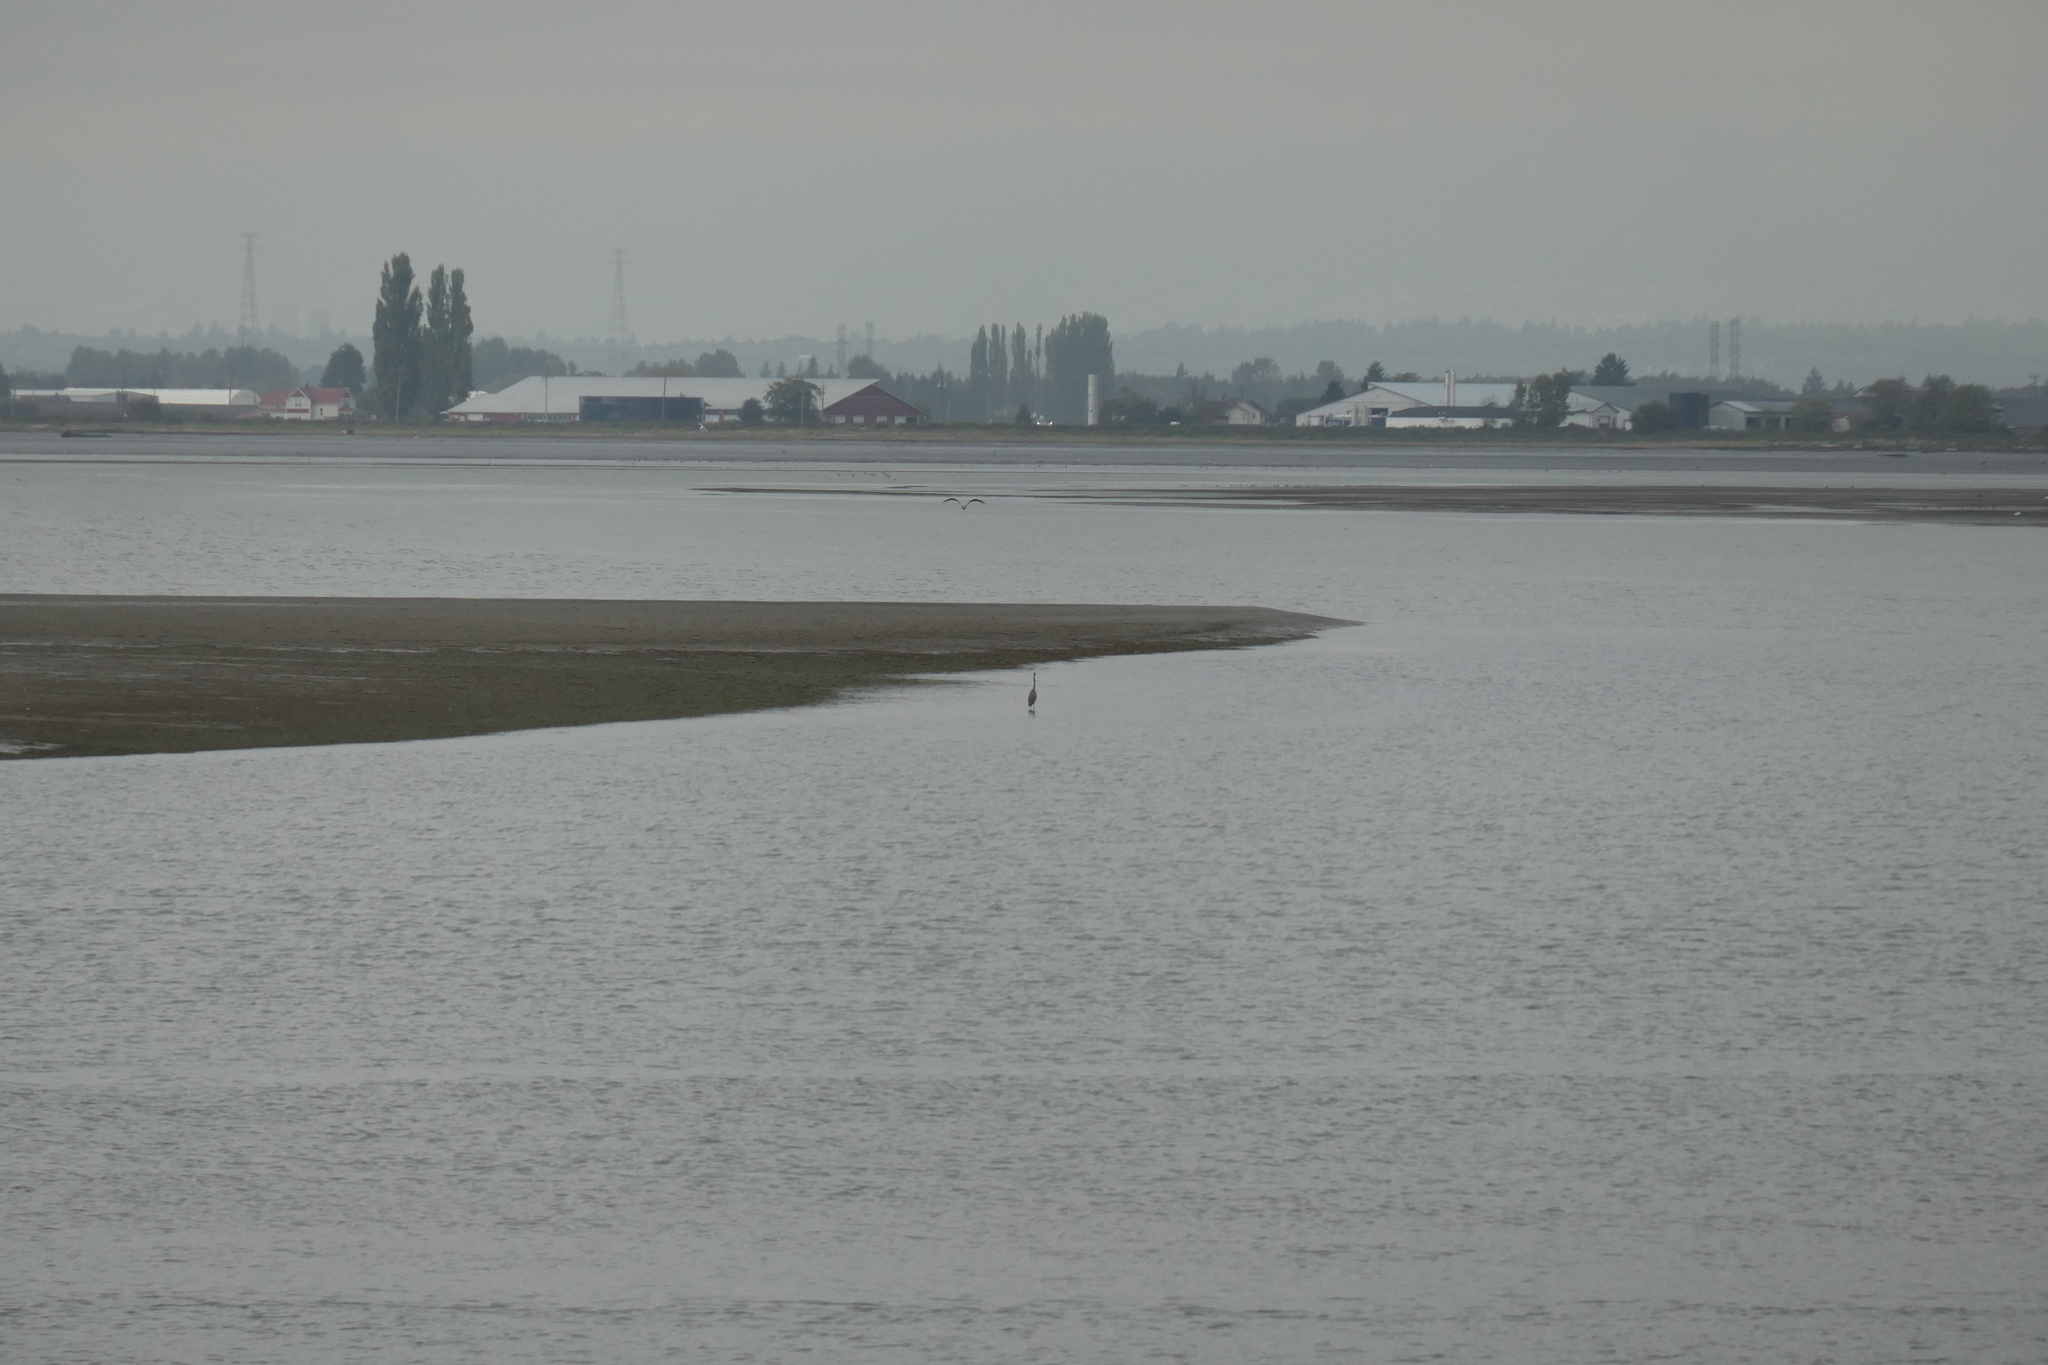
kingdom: Animalia
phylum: Chordata
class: Aves
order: Pelecaniformes
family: Ardeidae
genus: Ardea
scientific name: Ardea herodias
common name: Great blue heron
